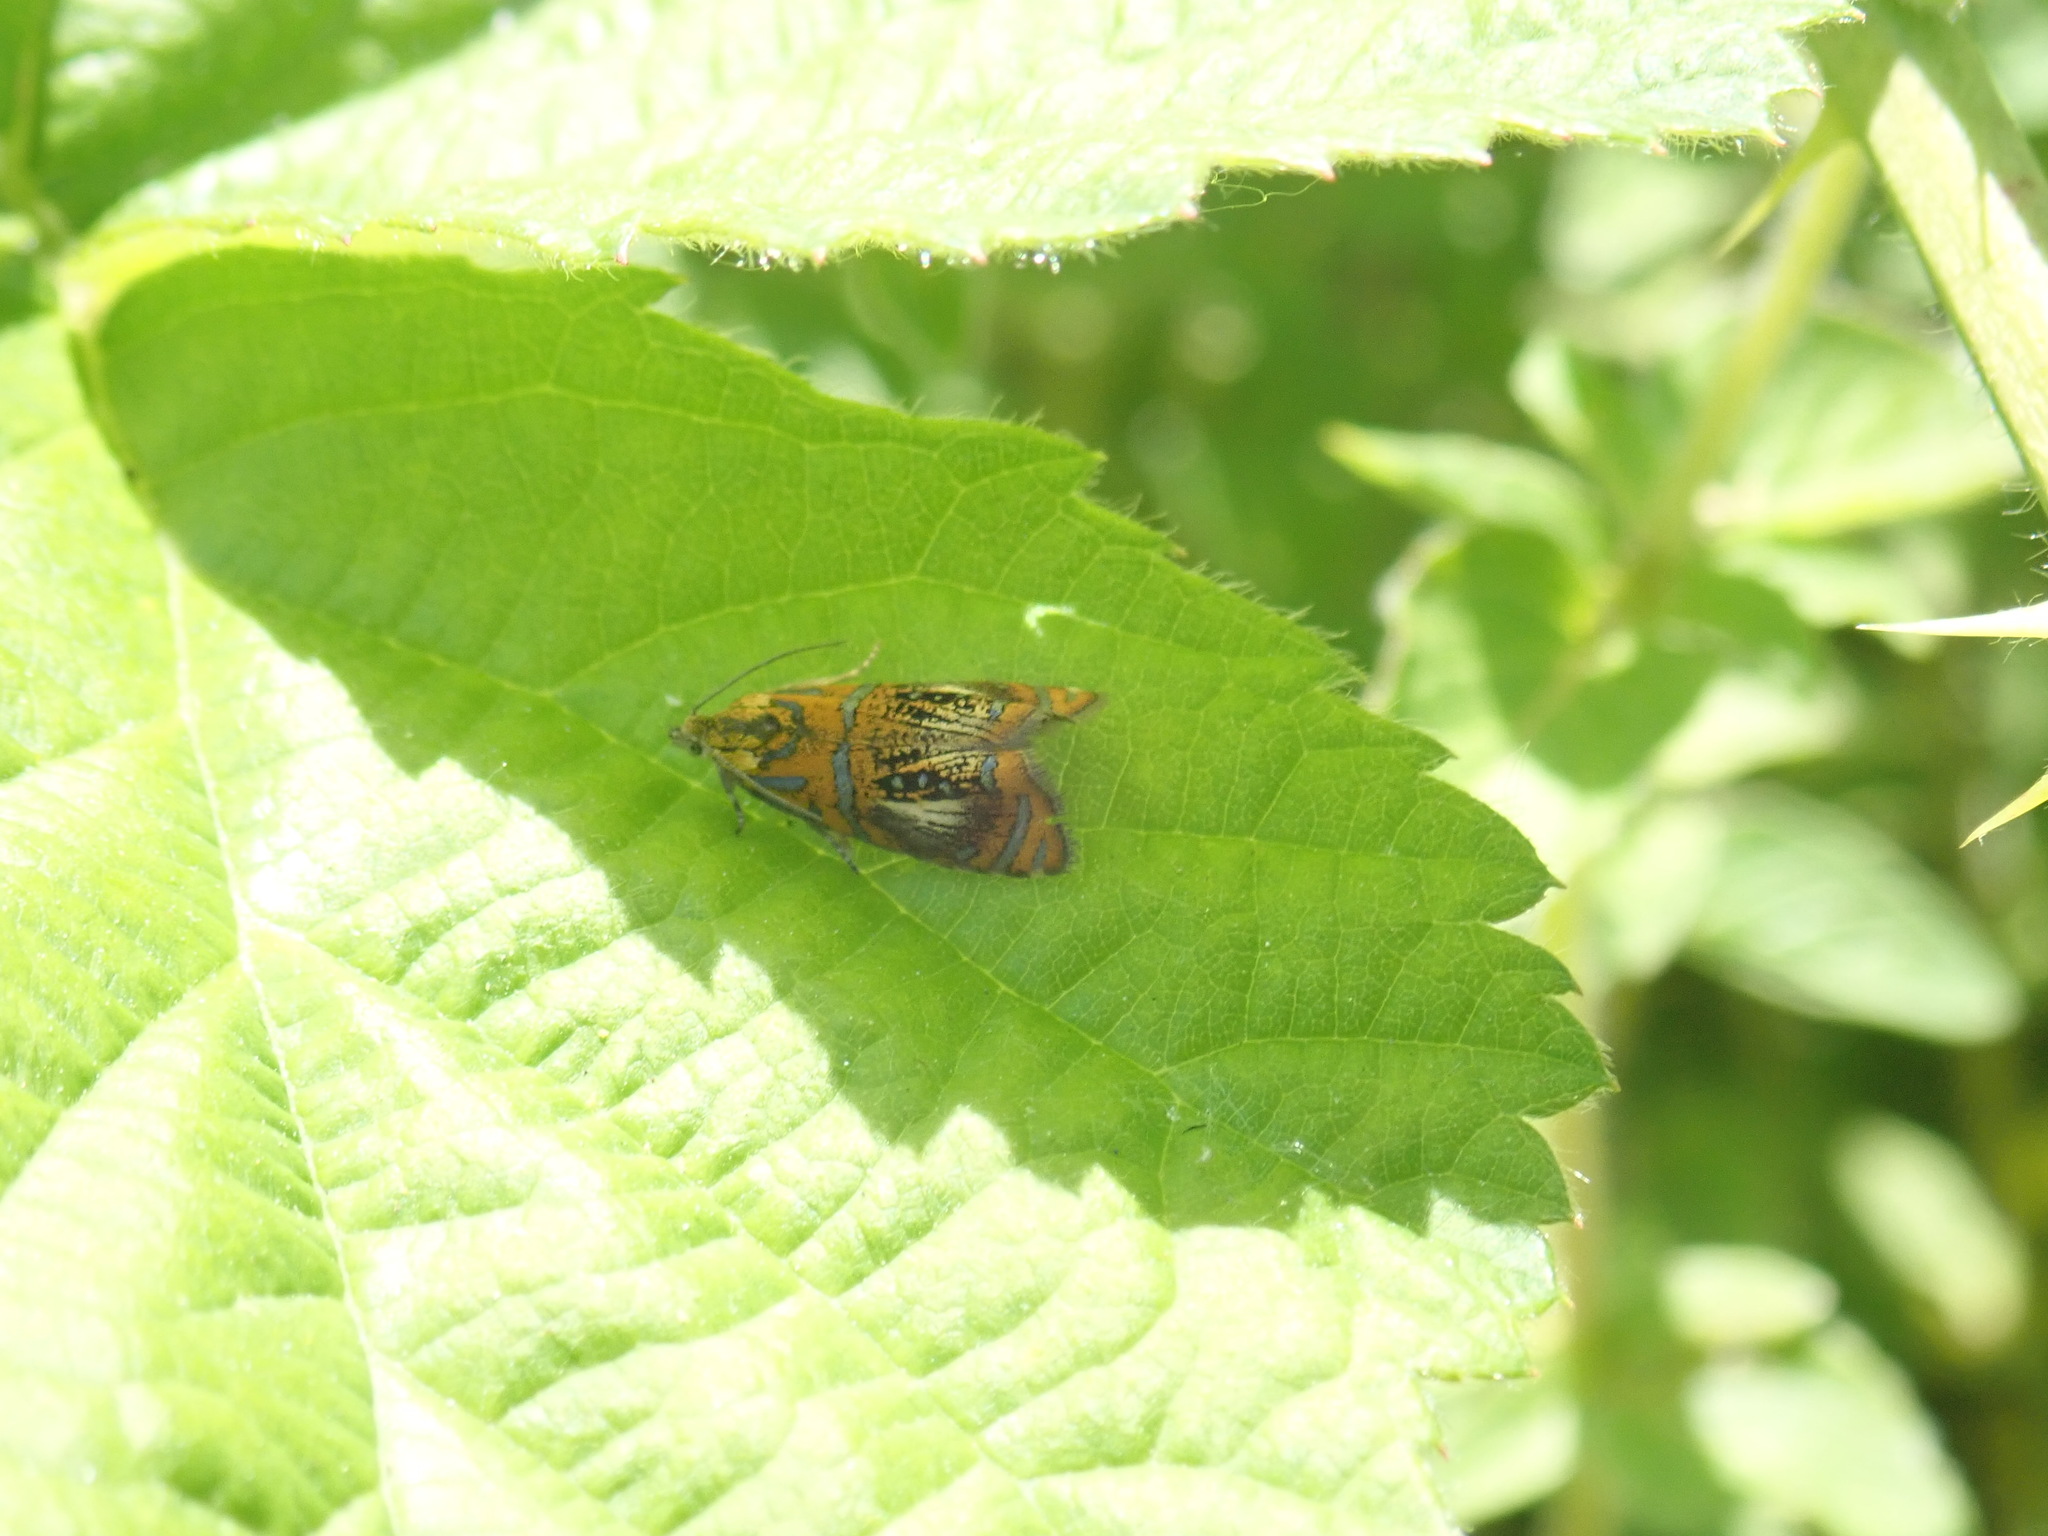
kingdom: Animalia
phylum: Arthropoda
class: Insecta
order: Lepidoptera
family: Tortricidae
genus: Olethreutes
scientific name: Olethreutes arcuella
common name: Arched marble
